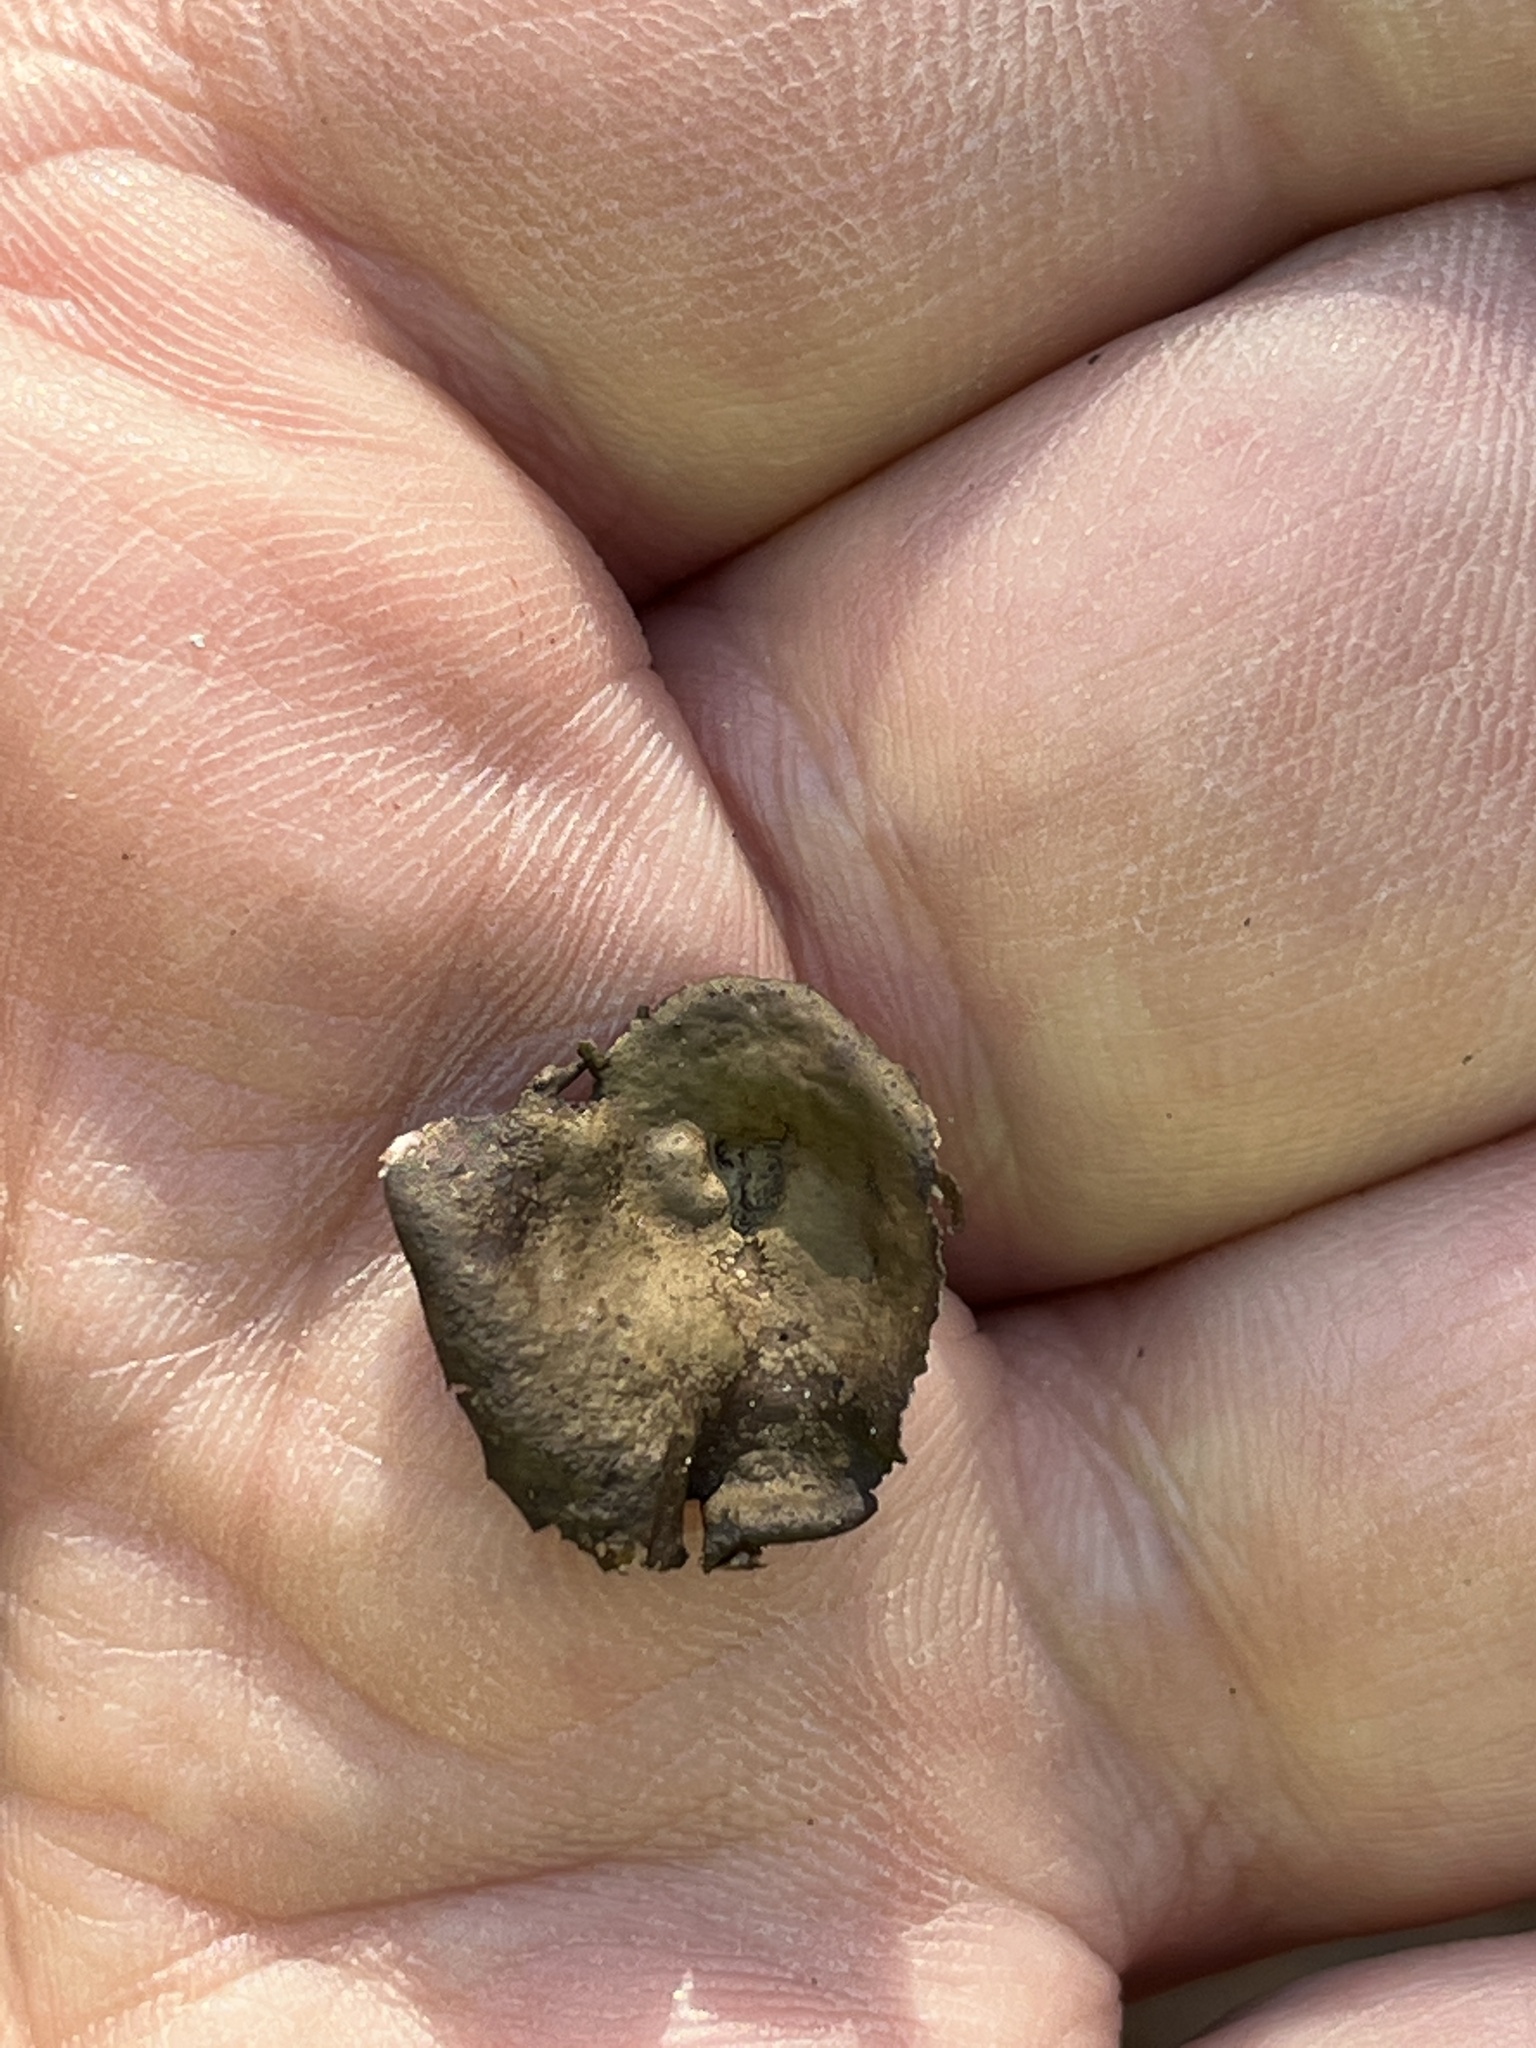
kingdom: Fungi
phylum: Ascomycota
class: Lecanoromycetes
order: Umbilicariales
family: Umbilicariaceae
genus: Umbilicaria
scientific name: Umbilicaria muhlenbergii
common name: Lesser rocktripe
